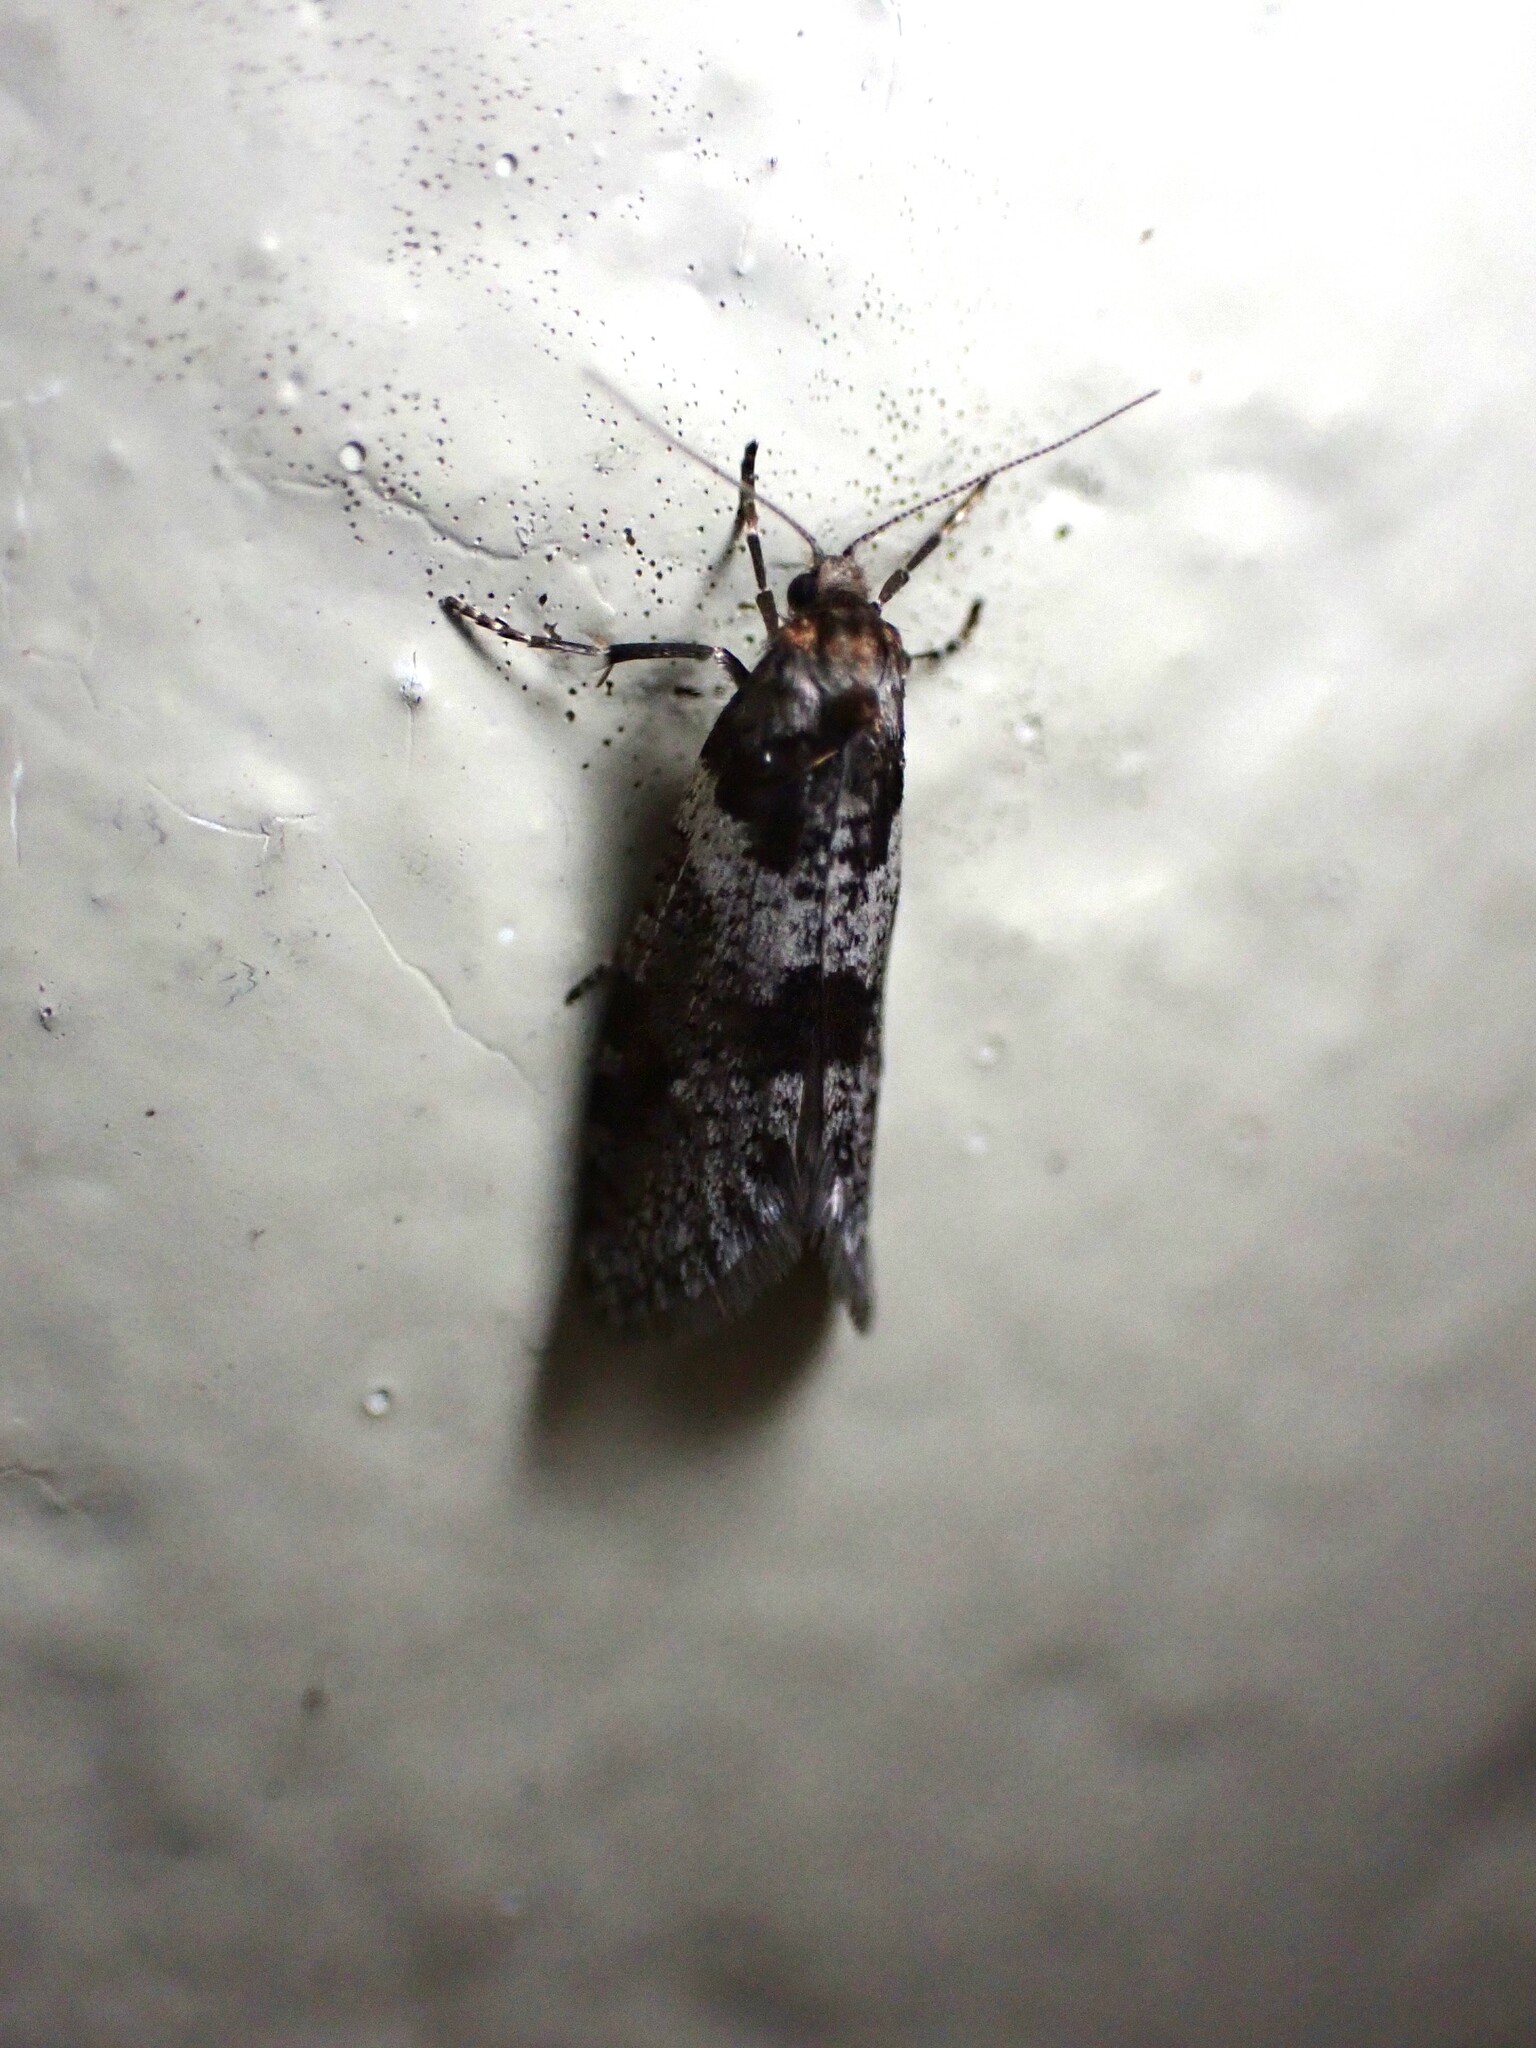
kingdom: Animalia
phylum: Arthropoda
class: Insecta
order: Lepidoptera
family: Psychidae
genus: Lepidoscia
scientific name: Lepidoscia heliochares
